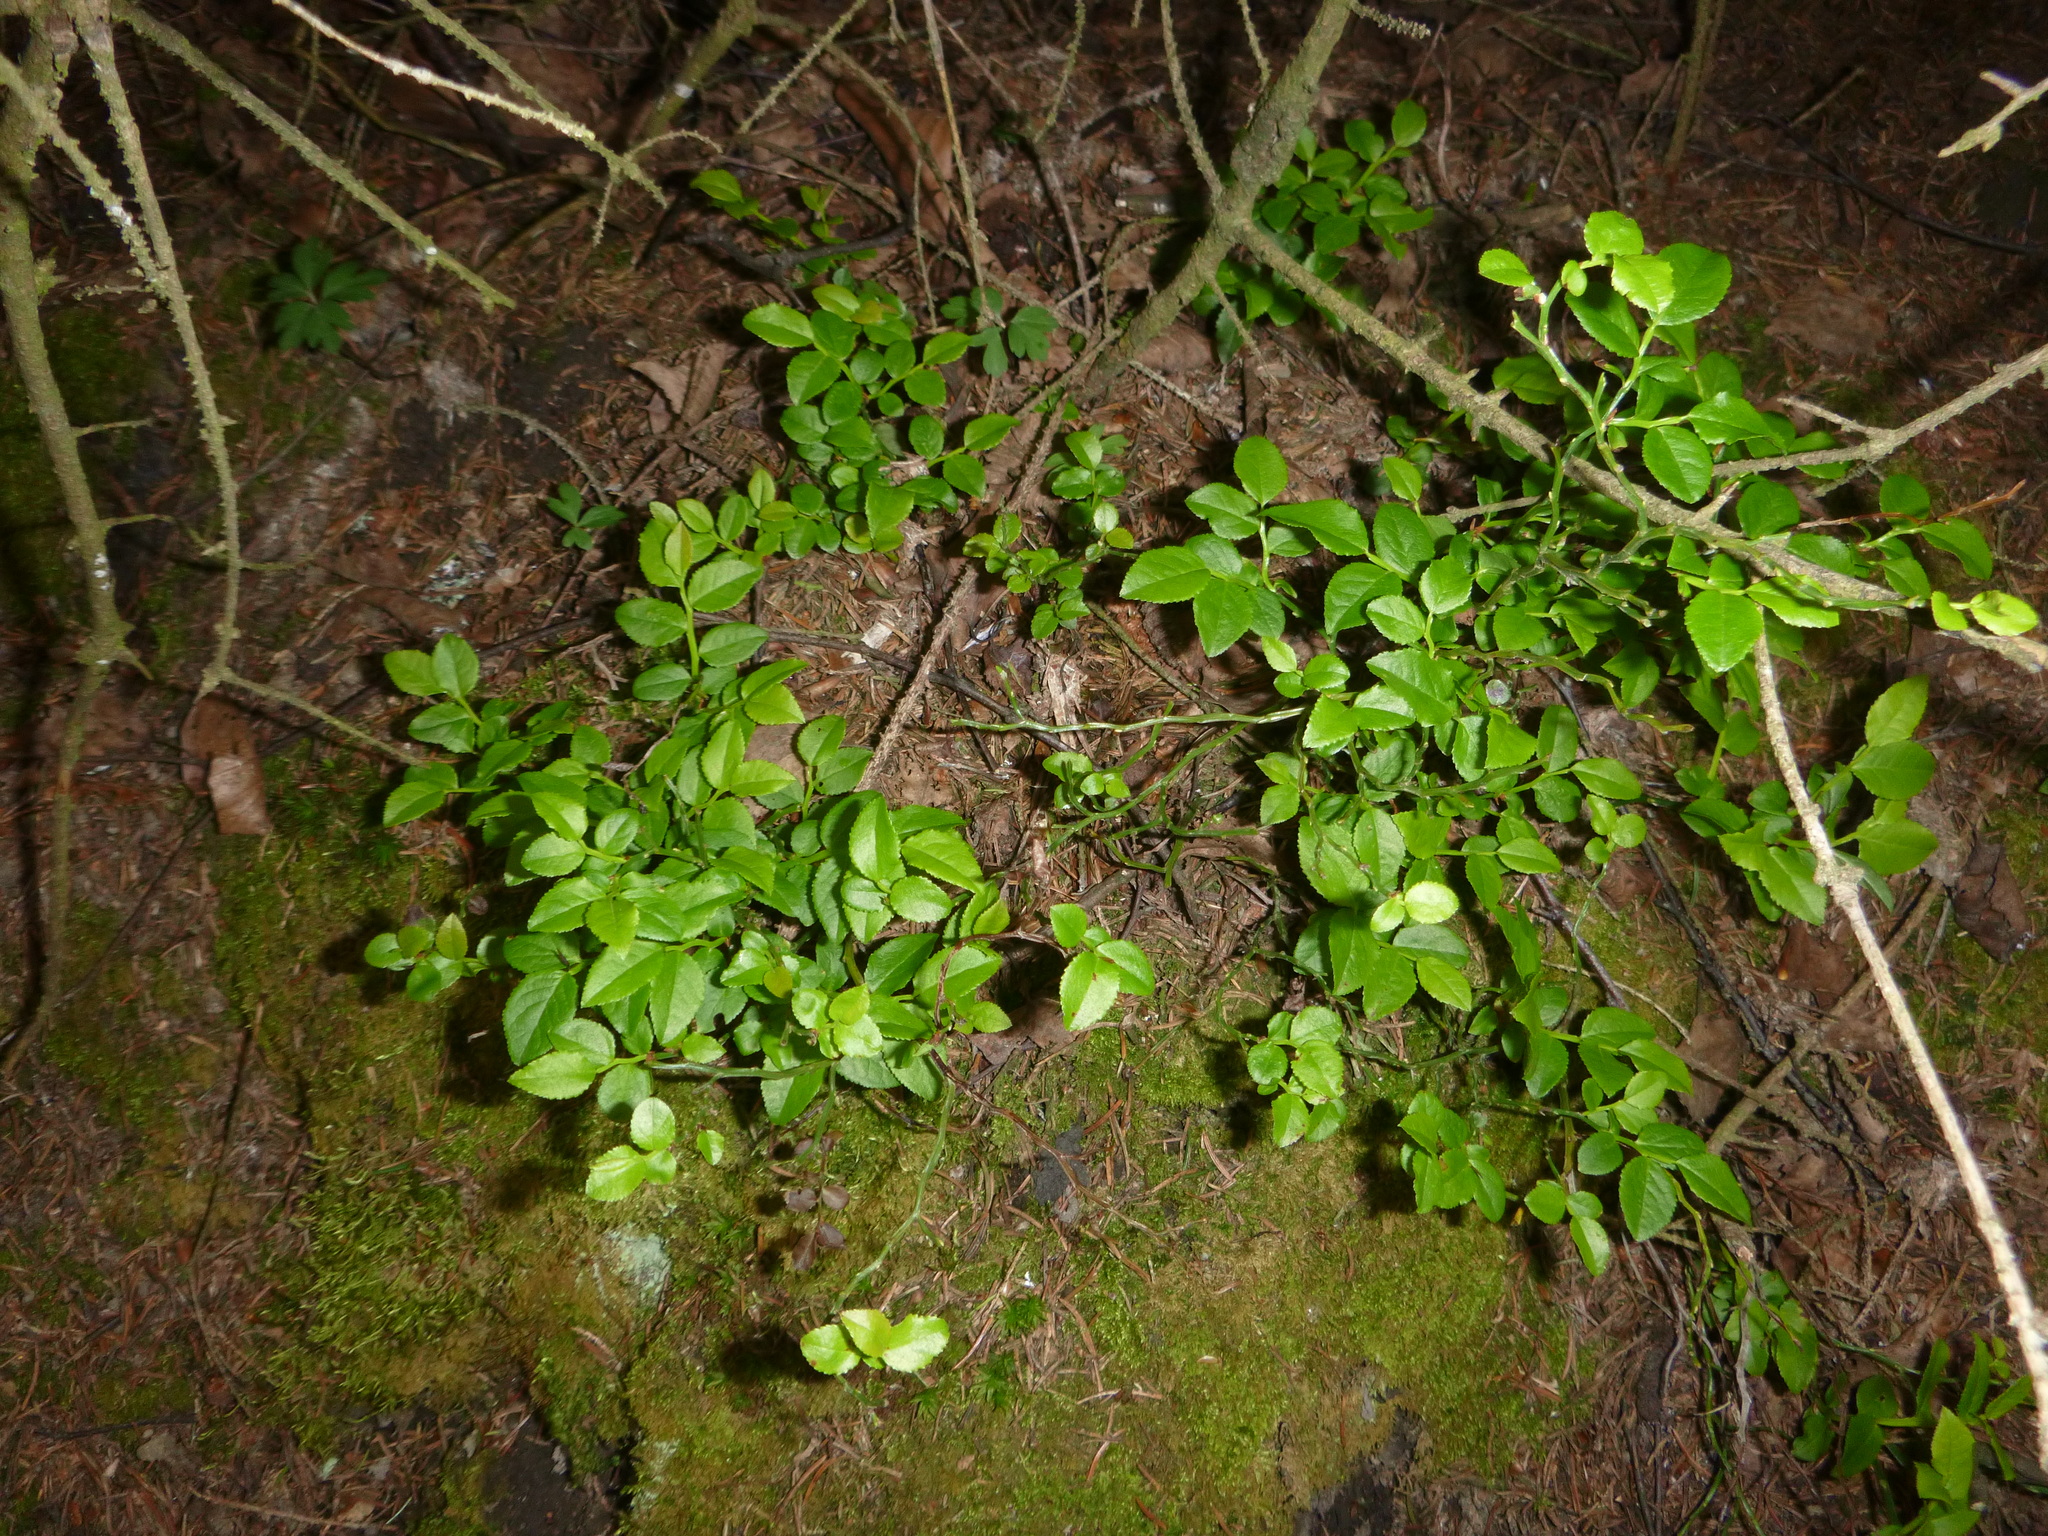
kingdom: Plantae
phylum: Tracheophyta
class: Magnoliopsida
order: Ericales
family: Ericaceae
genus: Vaccinium
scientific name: Vaccinium myrtillus
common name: Bilberry
